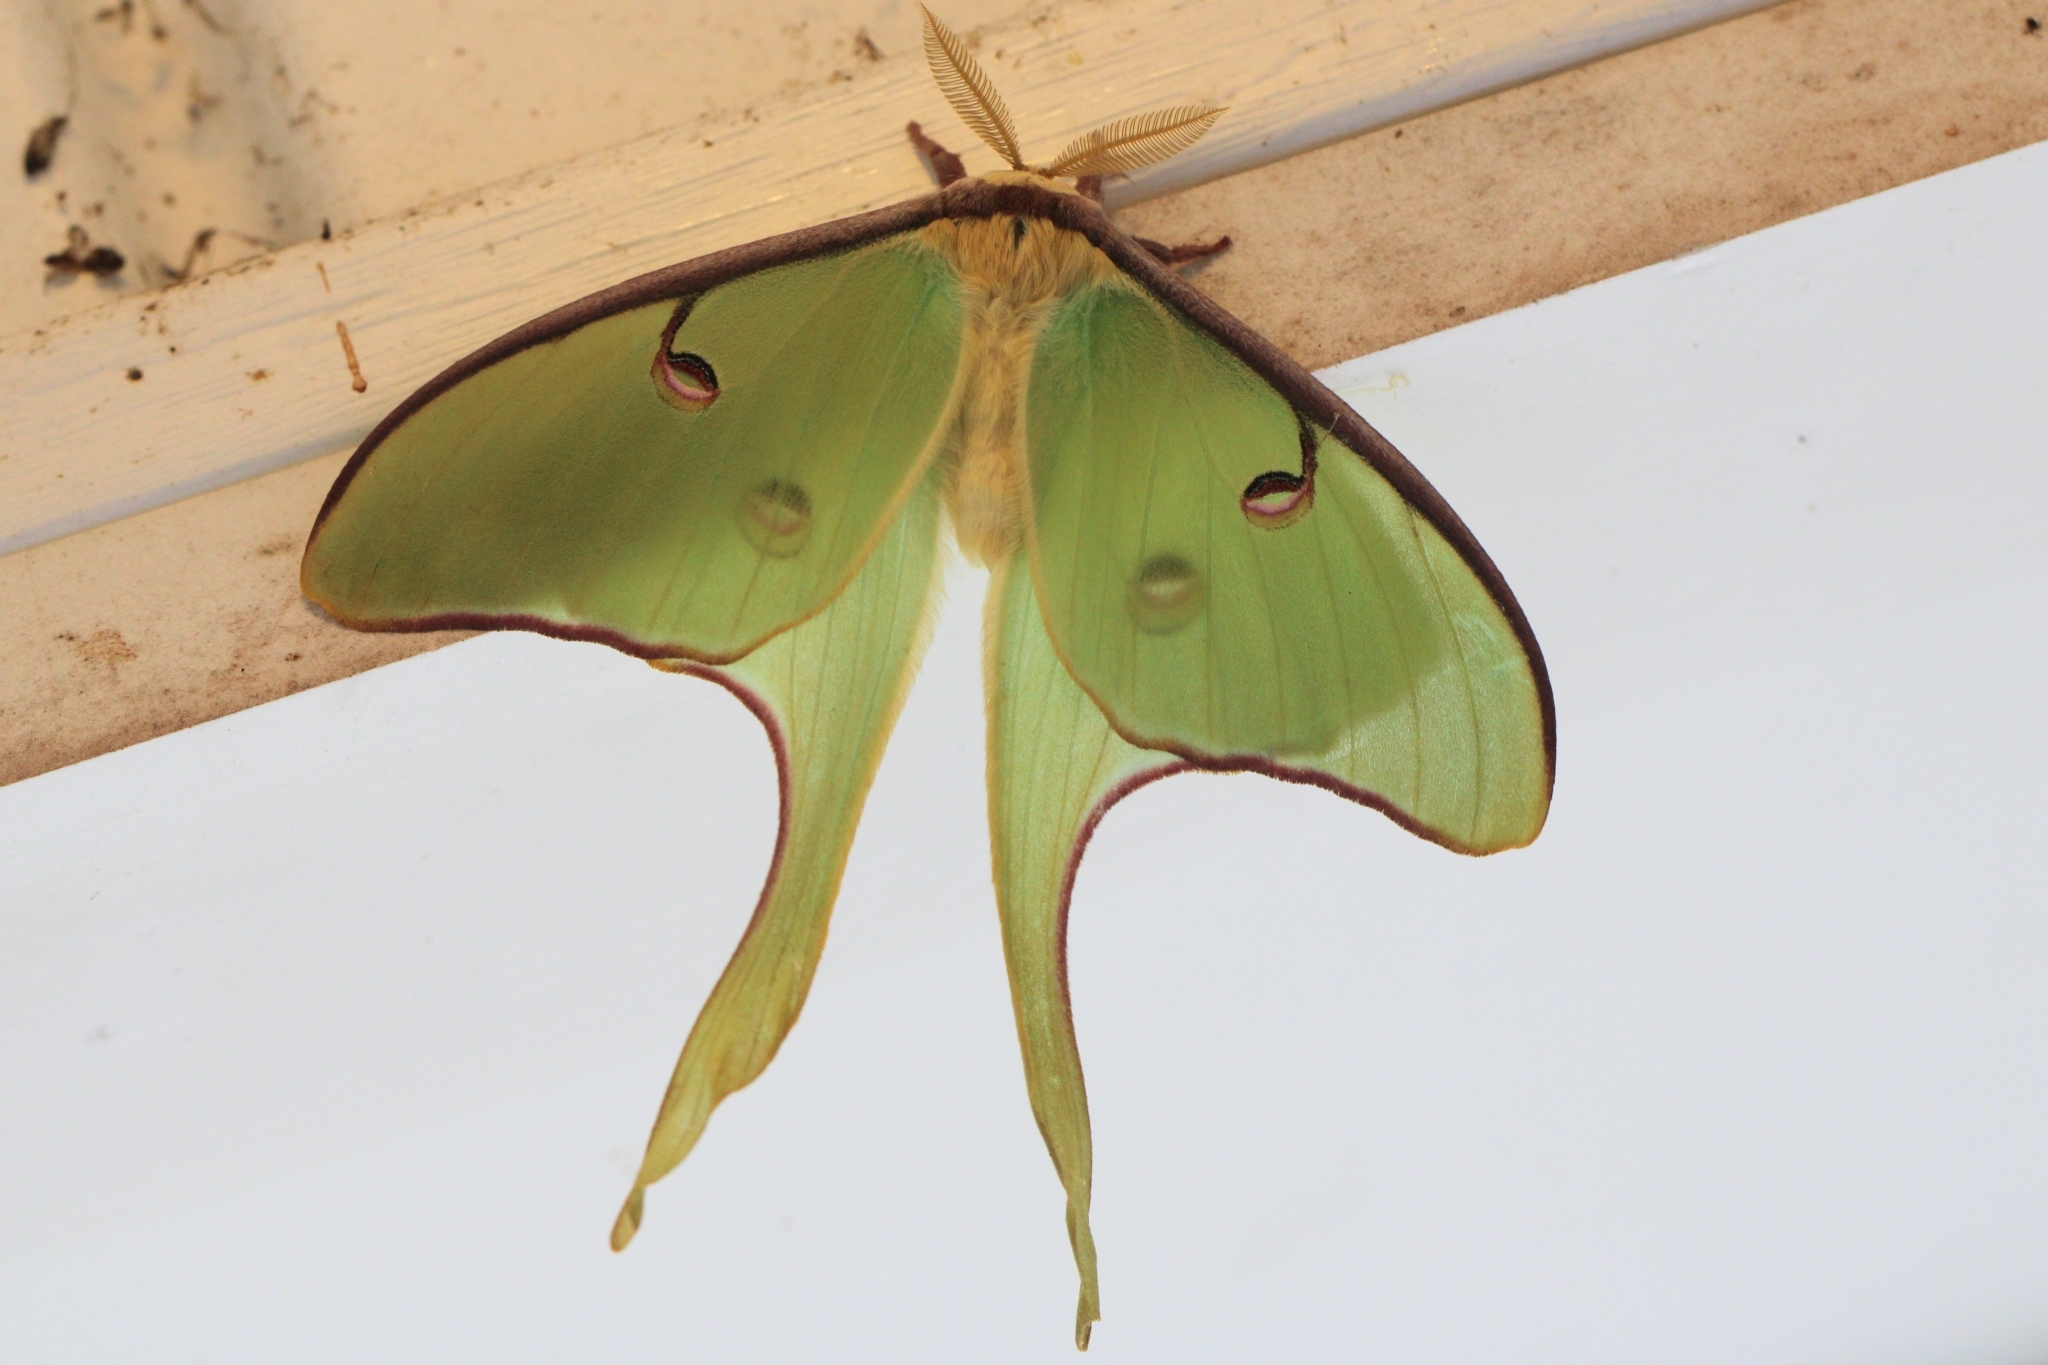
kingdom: Animalia
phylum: Arthropoda
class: Insecta
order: Lepidoptera
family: Saturniidae
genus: Actias
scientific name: Actias luna
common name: Luna moth
